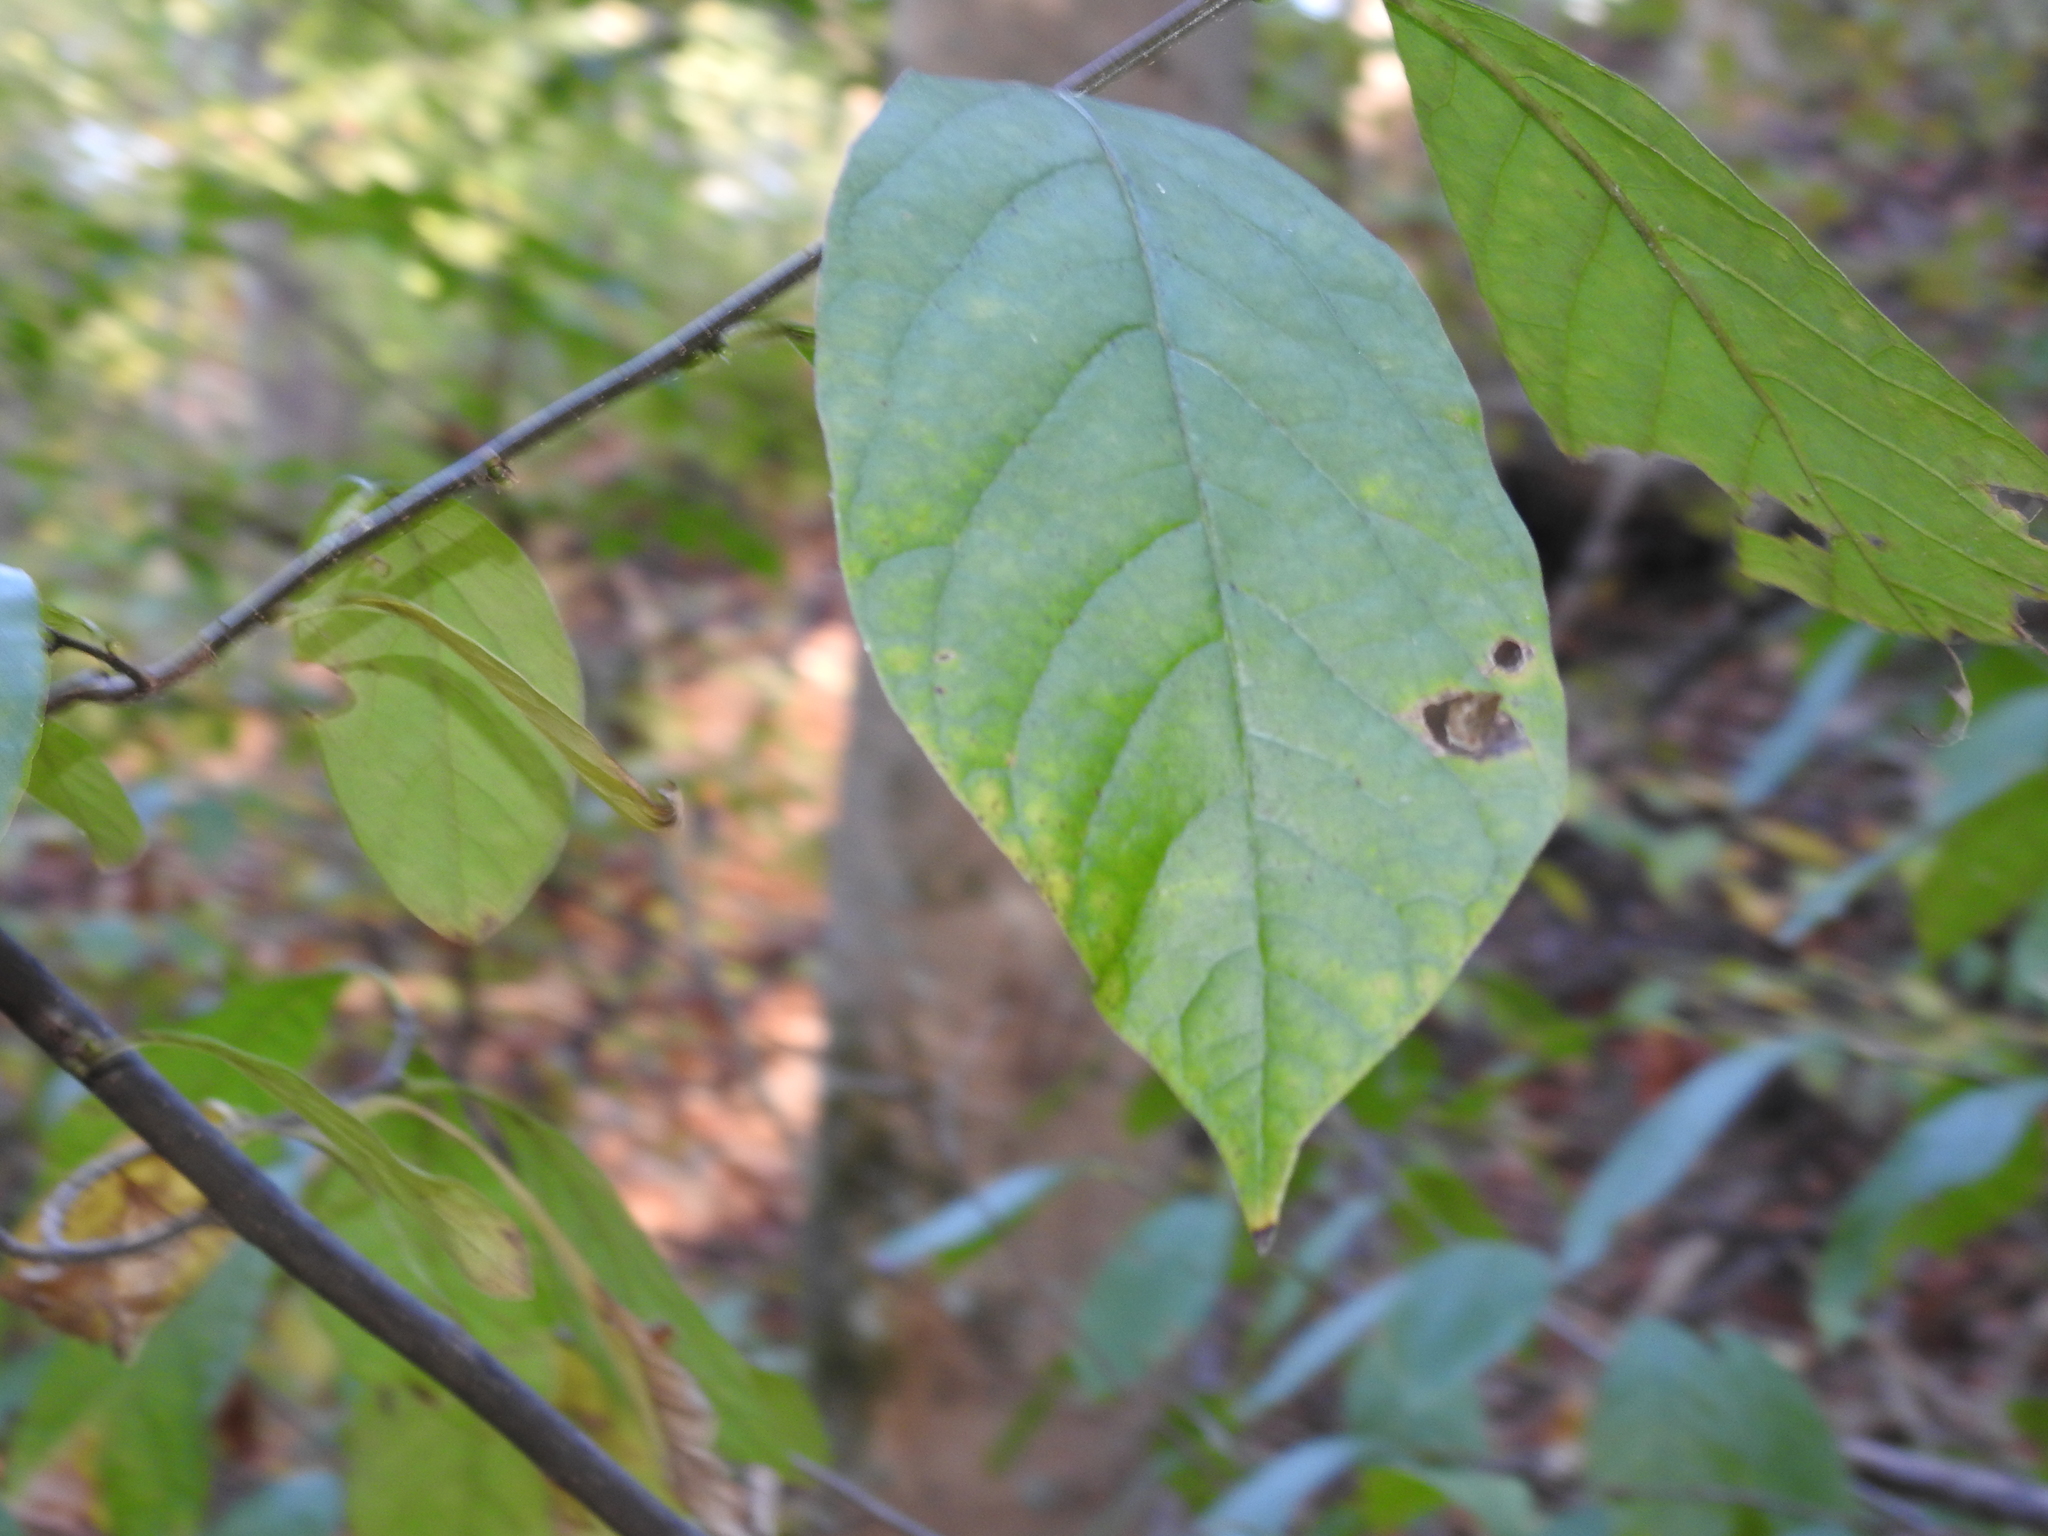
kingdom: Plantae
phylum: Tracheophyta
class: Magnoliopsida
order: Magnoliales
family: Annonaceae
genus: Asimina
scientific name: Asimina triloba
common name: Dog-banana
